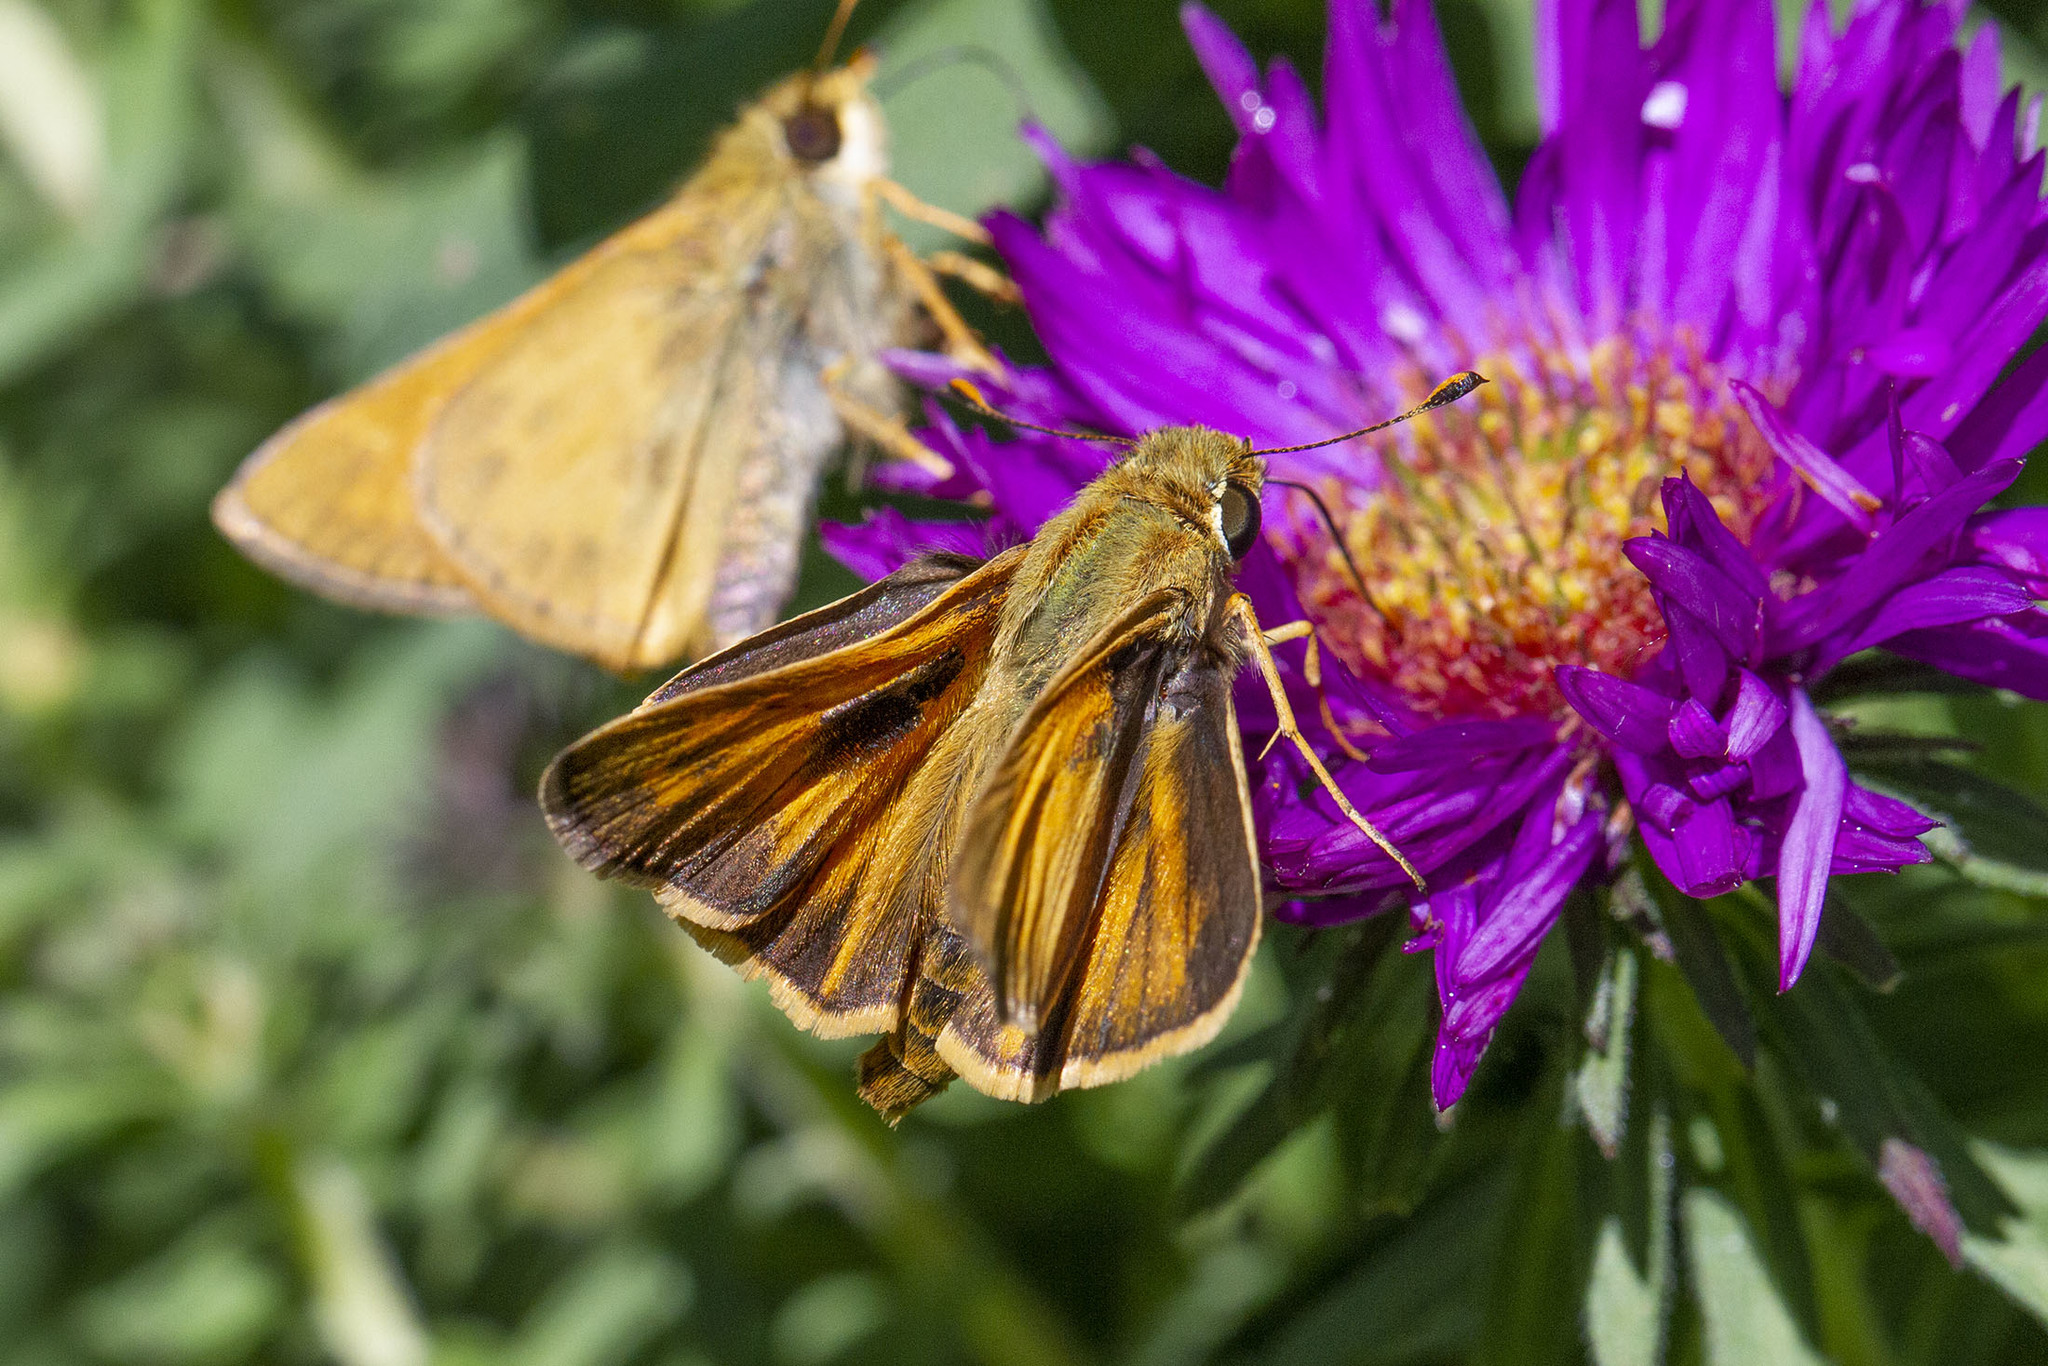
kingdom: Animalia
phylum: Arthropoda
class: Insecta
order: Lepidoptera
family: Hesperiidae
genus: Atalopedes
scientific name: Atalopedes
